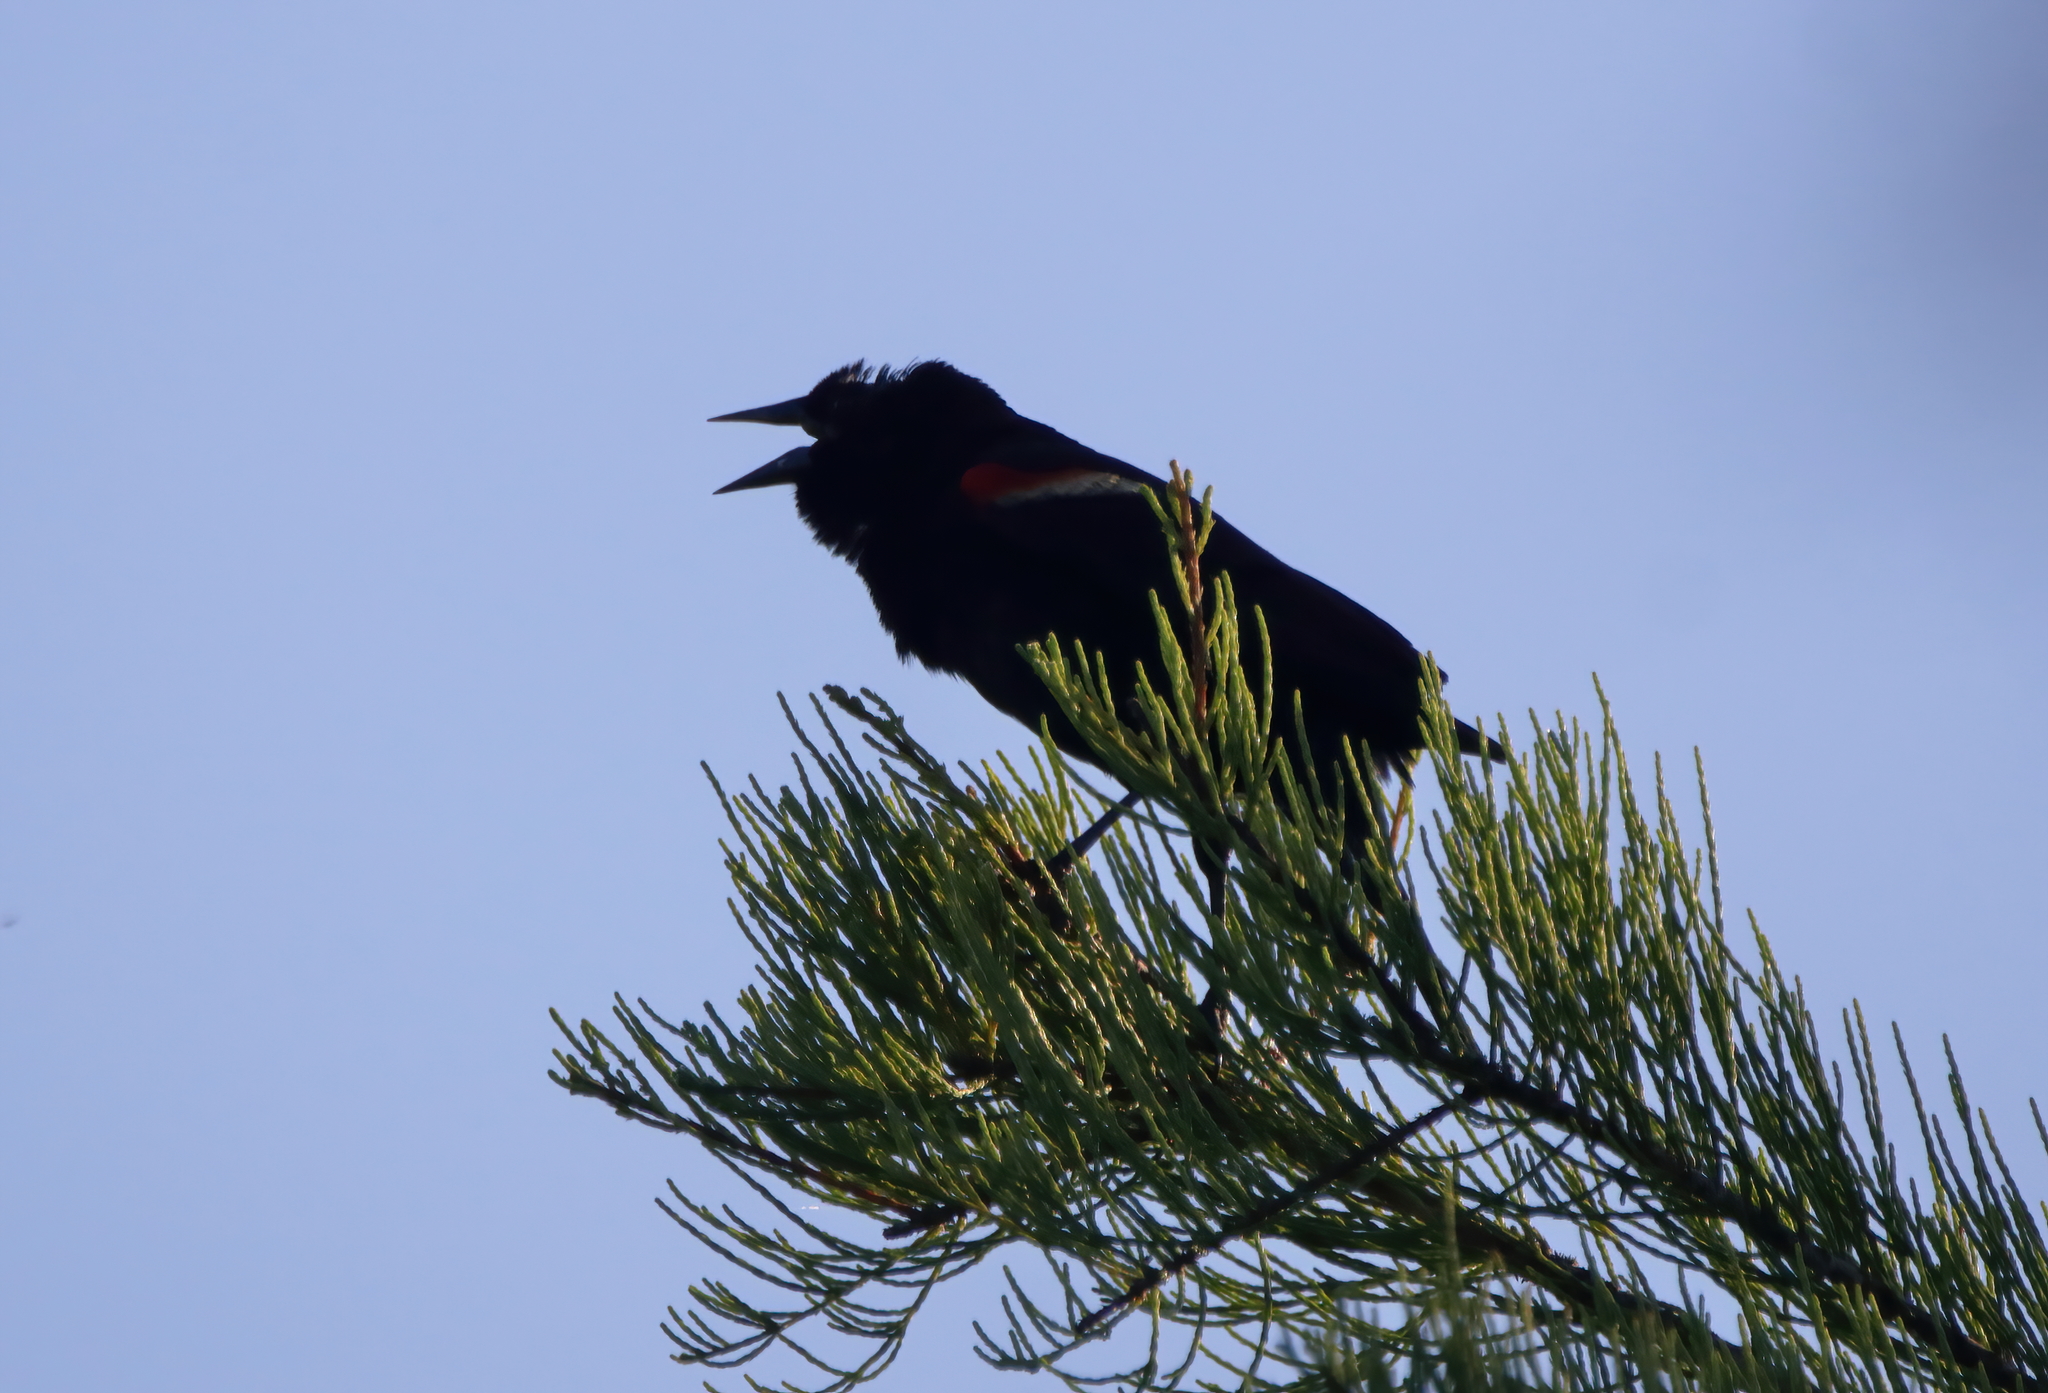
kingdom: Animalia
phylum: Chordata
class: Aves
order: Passeriformes
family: Icteridae
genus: Agelaius
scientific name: Agelaius phoeniceus
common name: Red-winged blackbird
